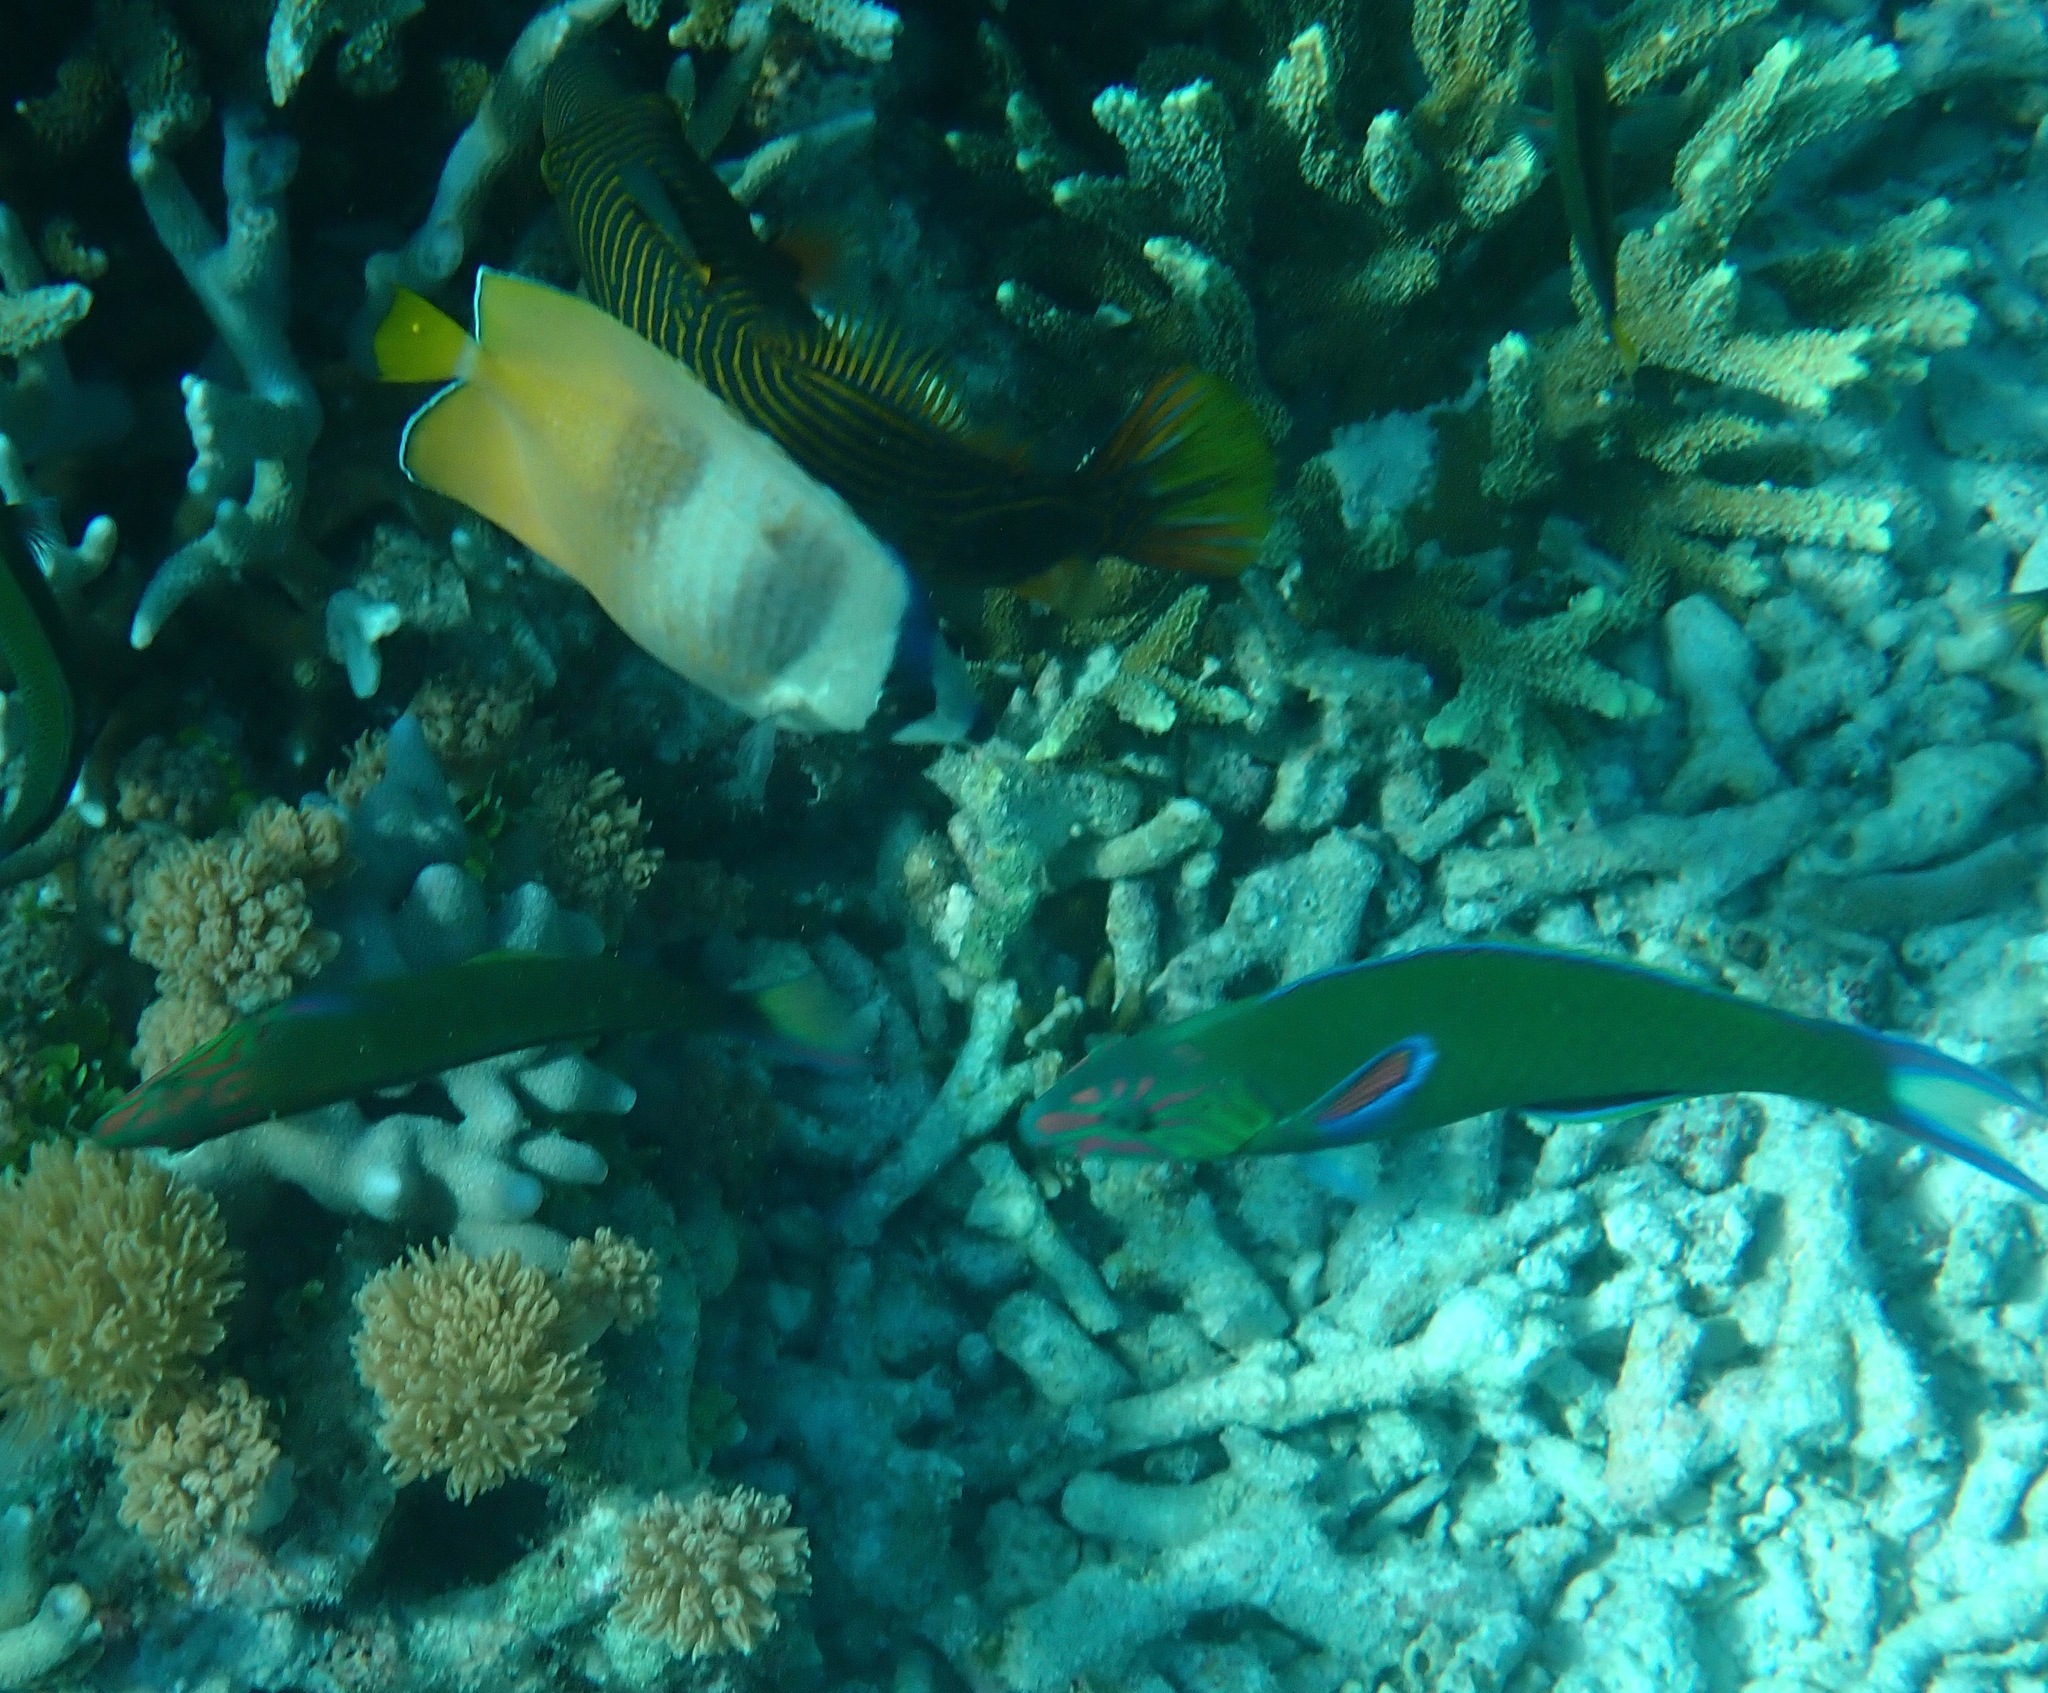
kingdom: Animalia
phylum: Chordata
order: Perciformes
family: Chaetodontidae
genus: Chaetodon
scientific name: Chaetodon kleinii
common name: Klein's butterflyfish
